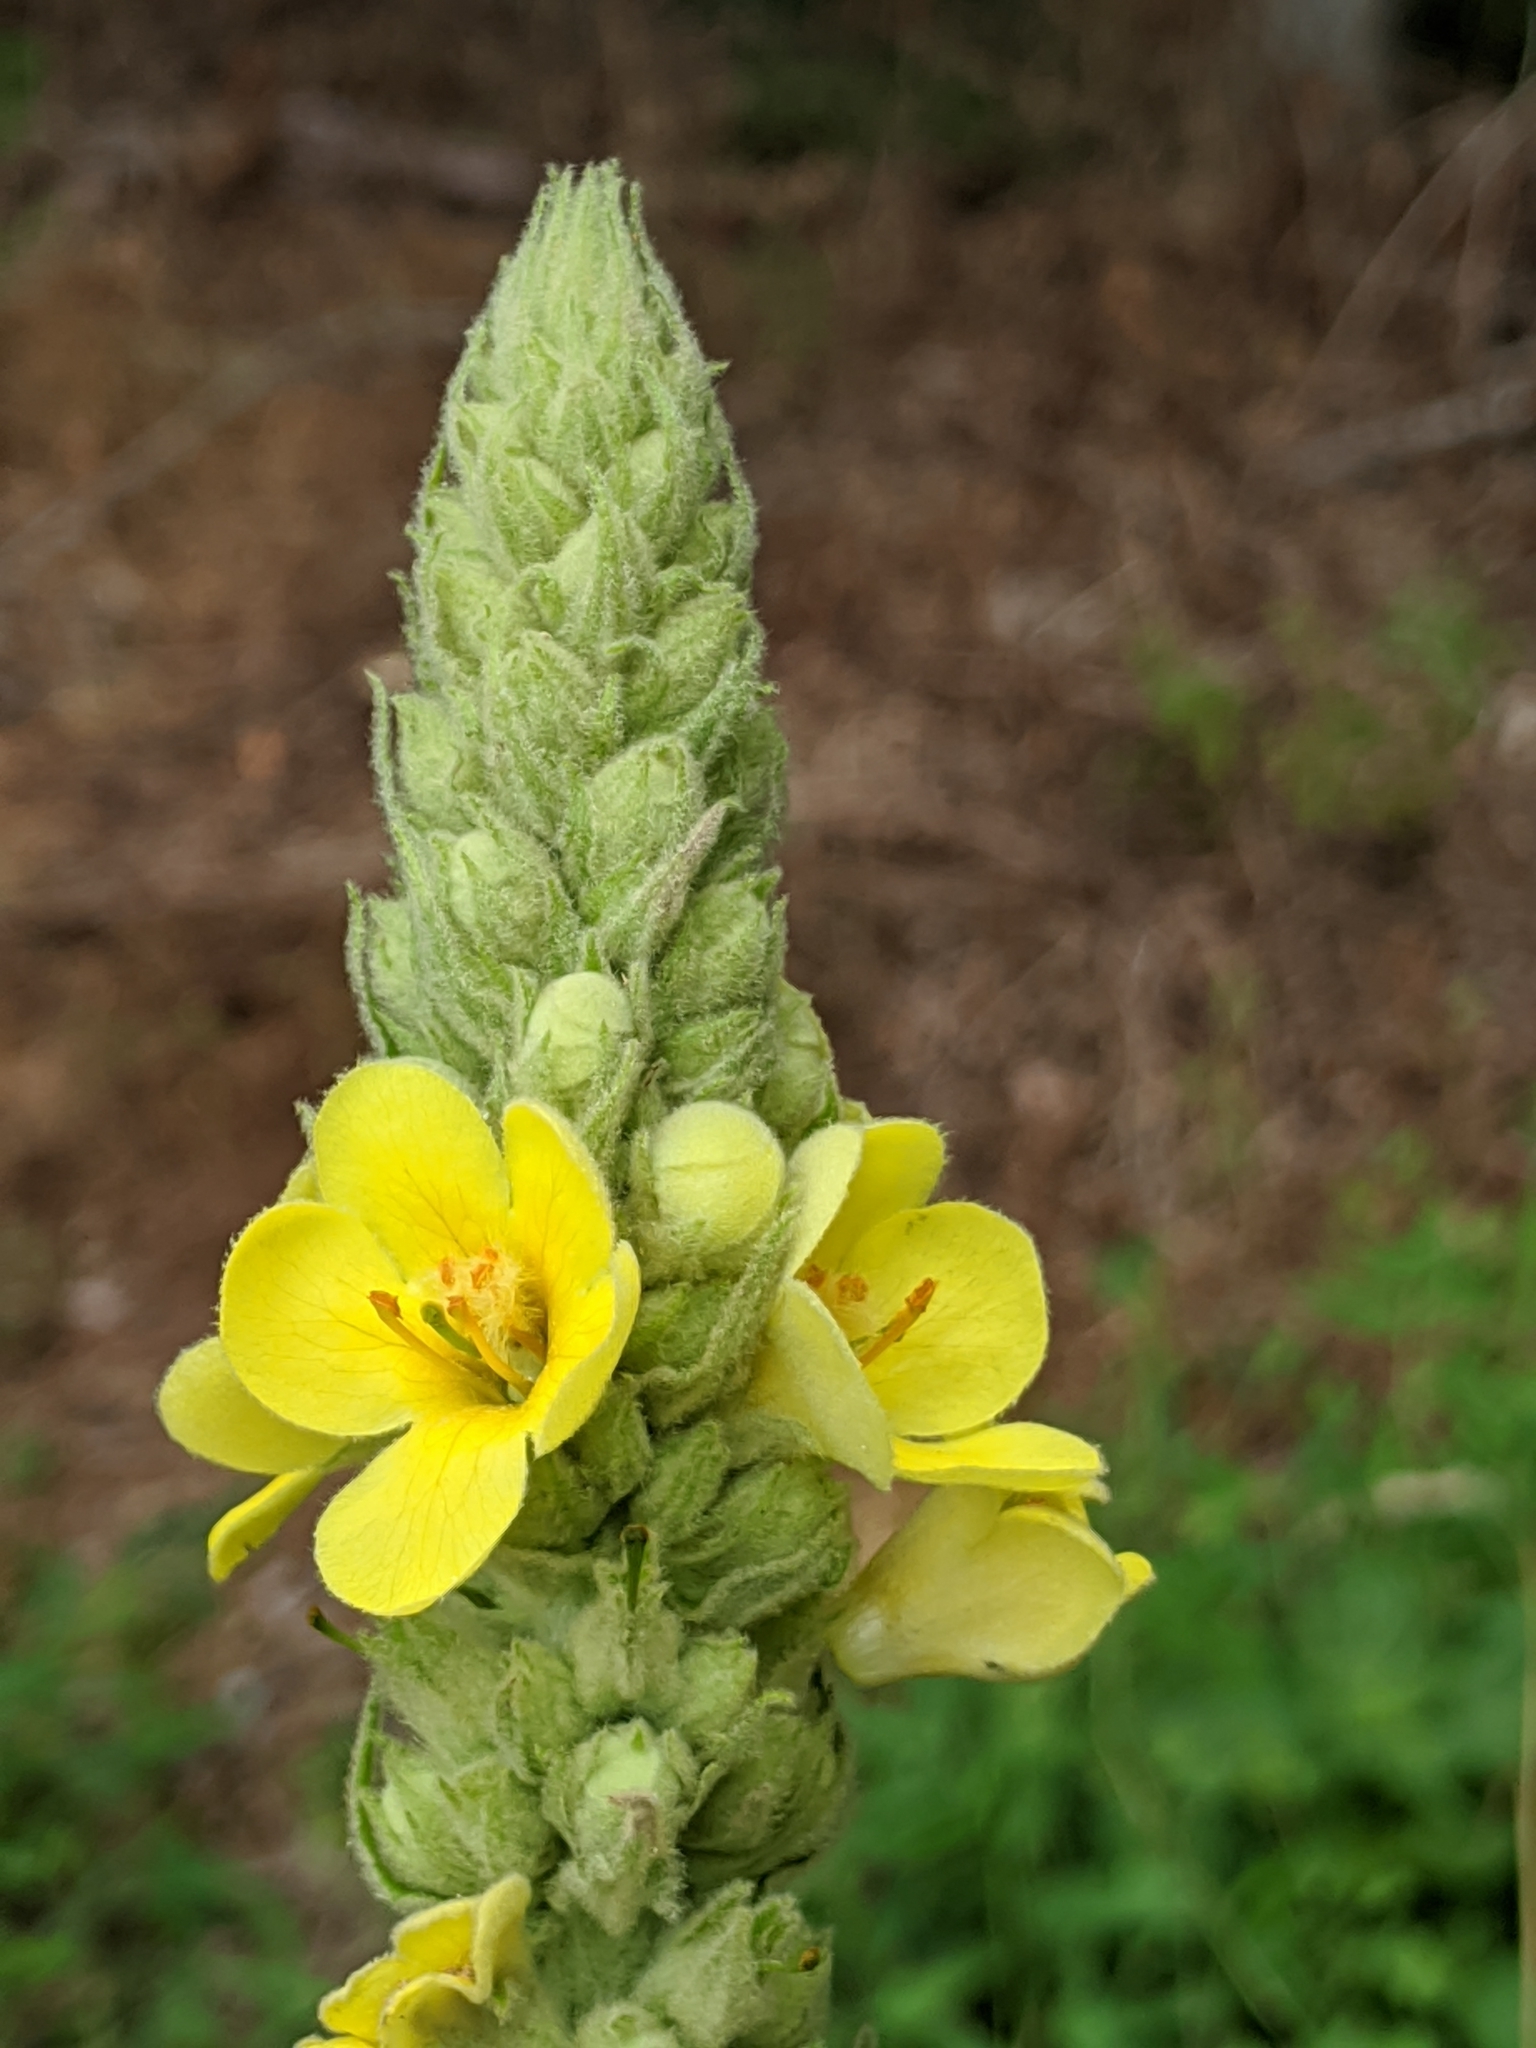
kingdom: Plantae
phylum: Tracheophyta
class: Magnoliopsida
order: Lamiales
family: Scrophulariaceae
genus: Verbascum
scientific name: Verbascum thapsus
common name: Common mullein
